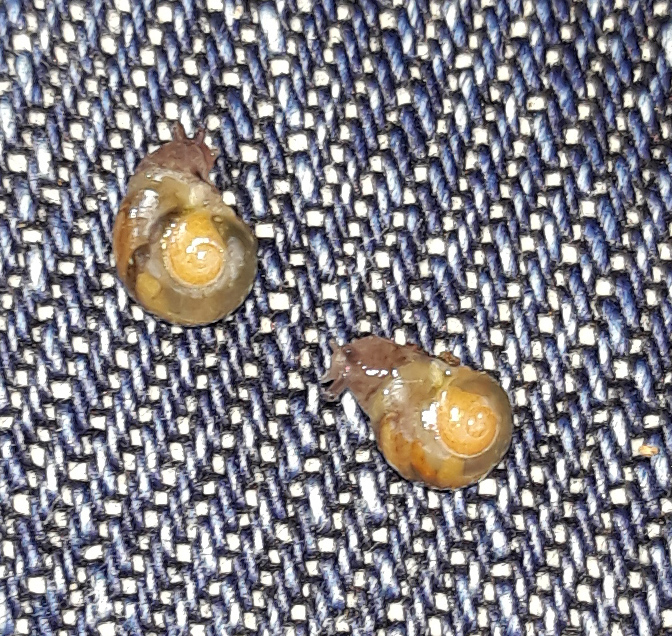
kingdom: Animalia
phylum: Mollusca
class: Gastropoda
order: Stylommatophora
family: Vitrinidae
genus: Vitrina
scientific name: Vitrina pellucida
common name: Pellucid glass snail
